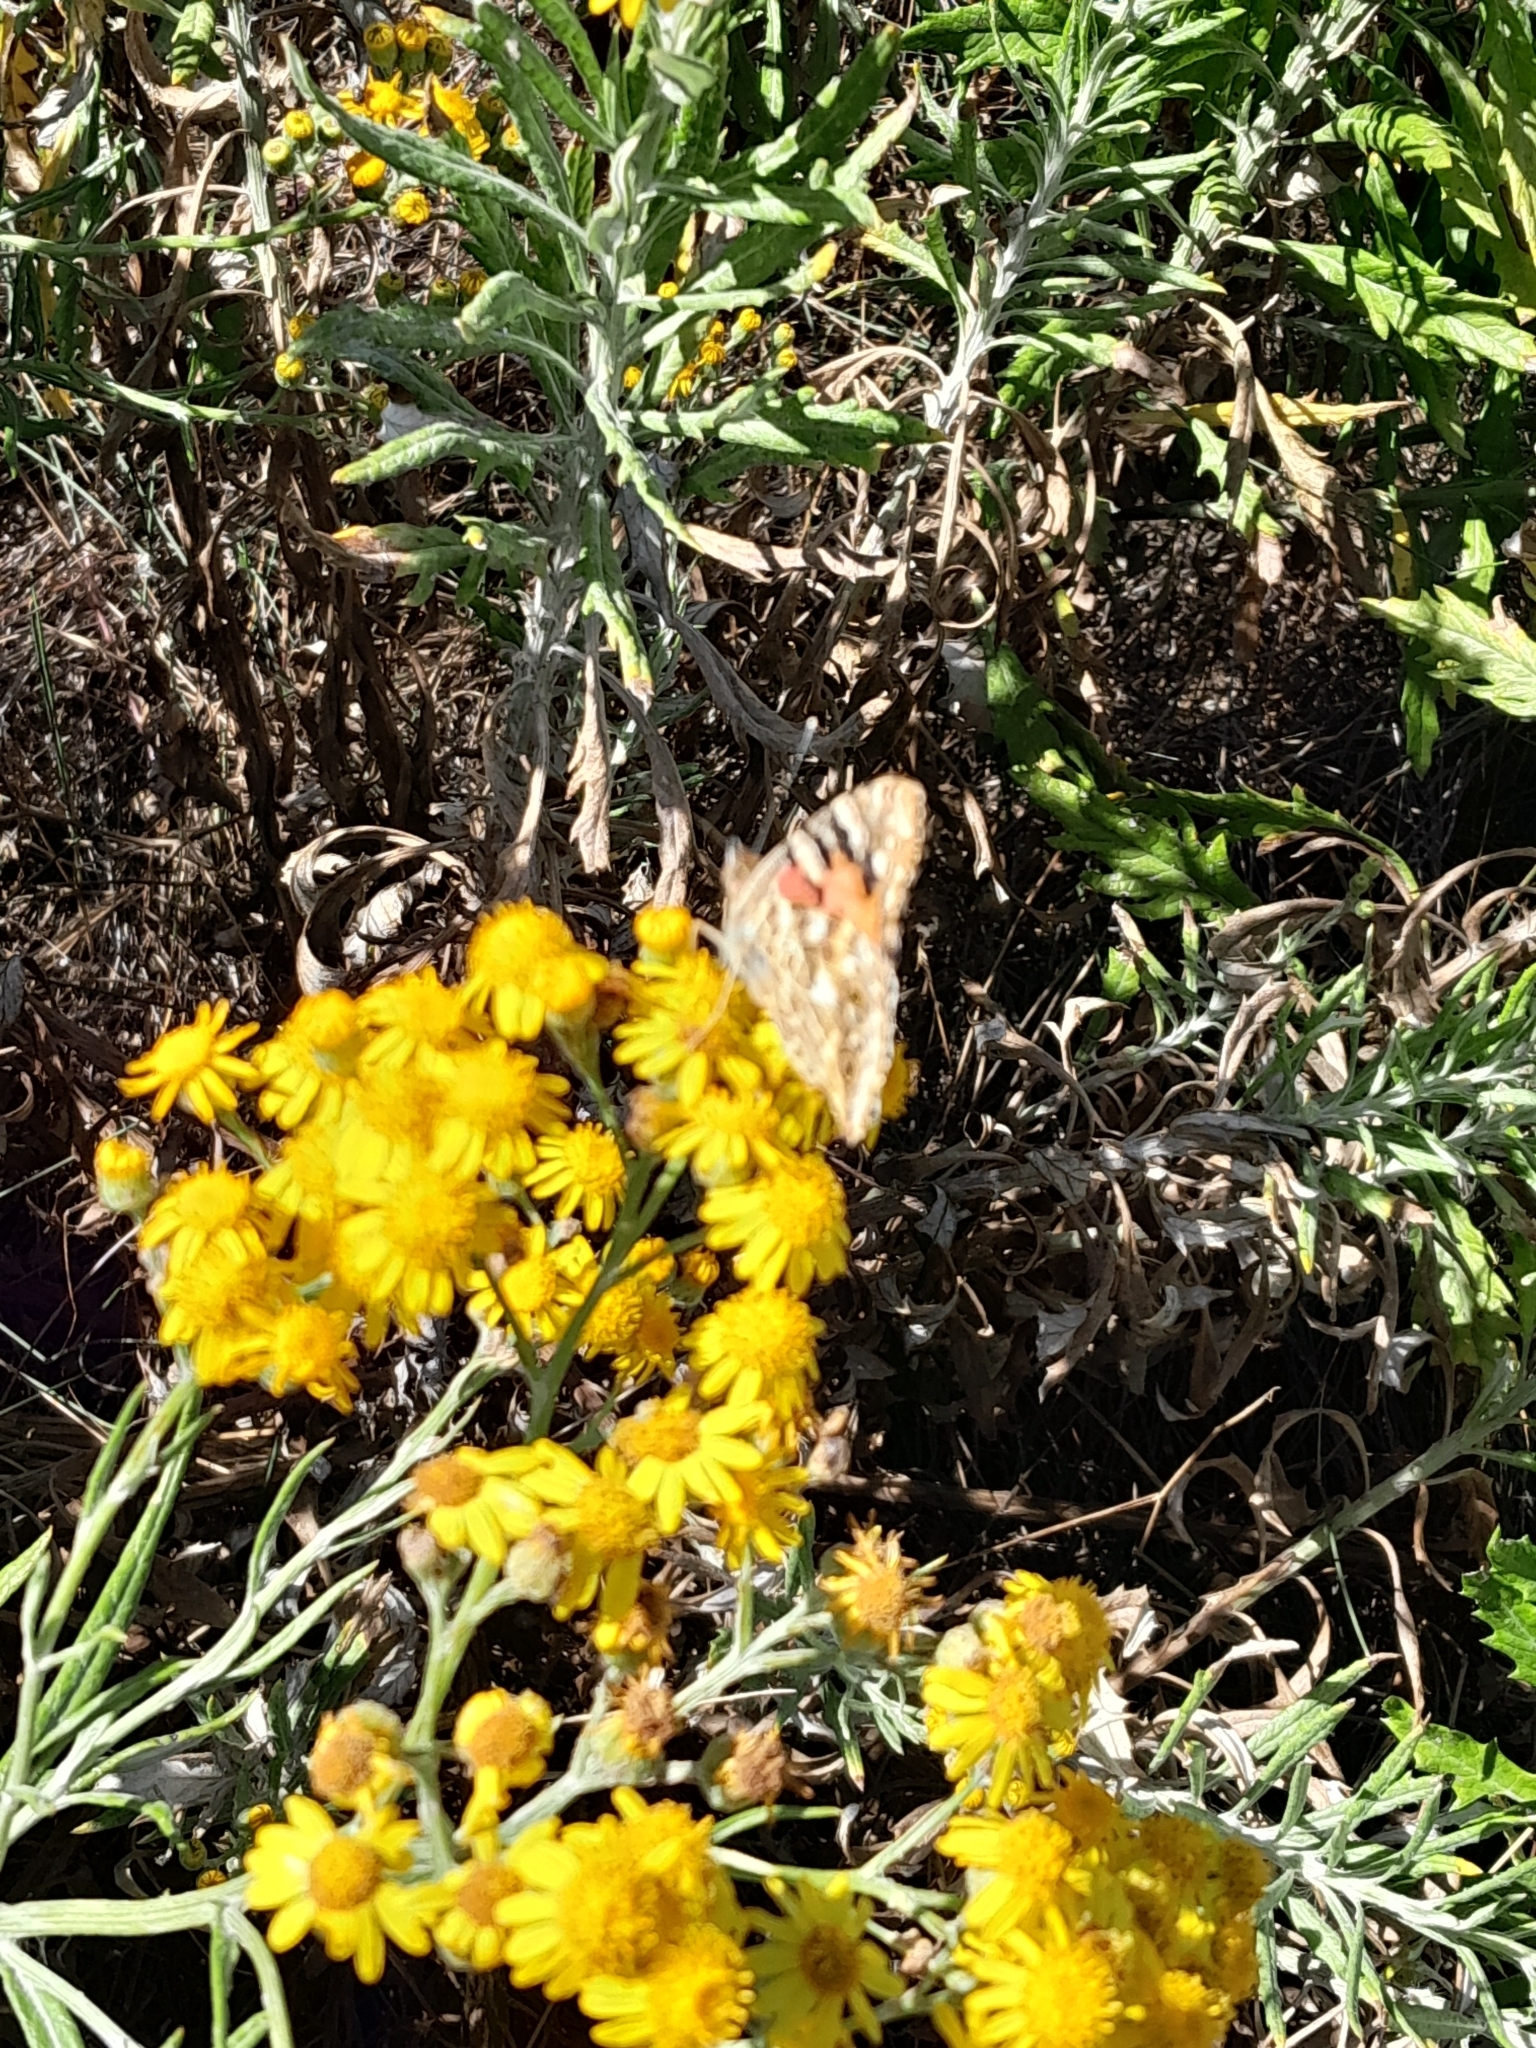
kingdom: Plantae
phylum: Tracheophyta
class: Magnoliopsida
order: Asterales
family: Asteraceae
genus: Senecio
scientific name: Senecio pterophorus
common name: Shoddy ragwort
